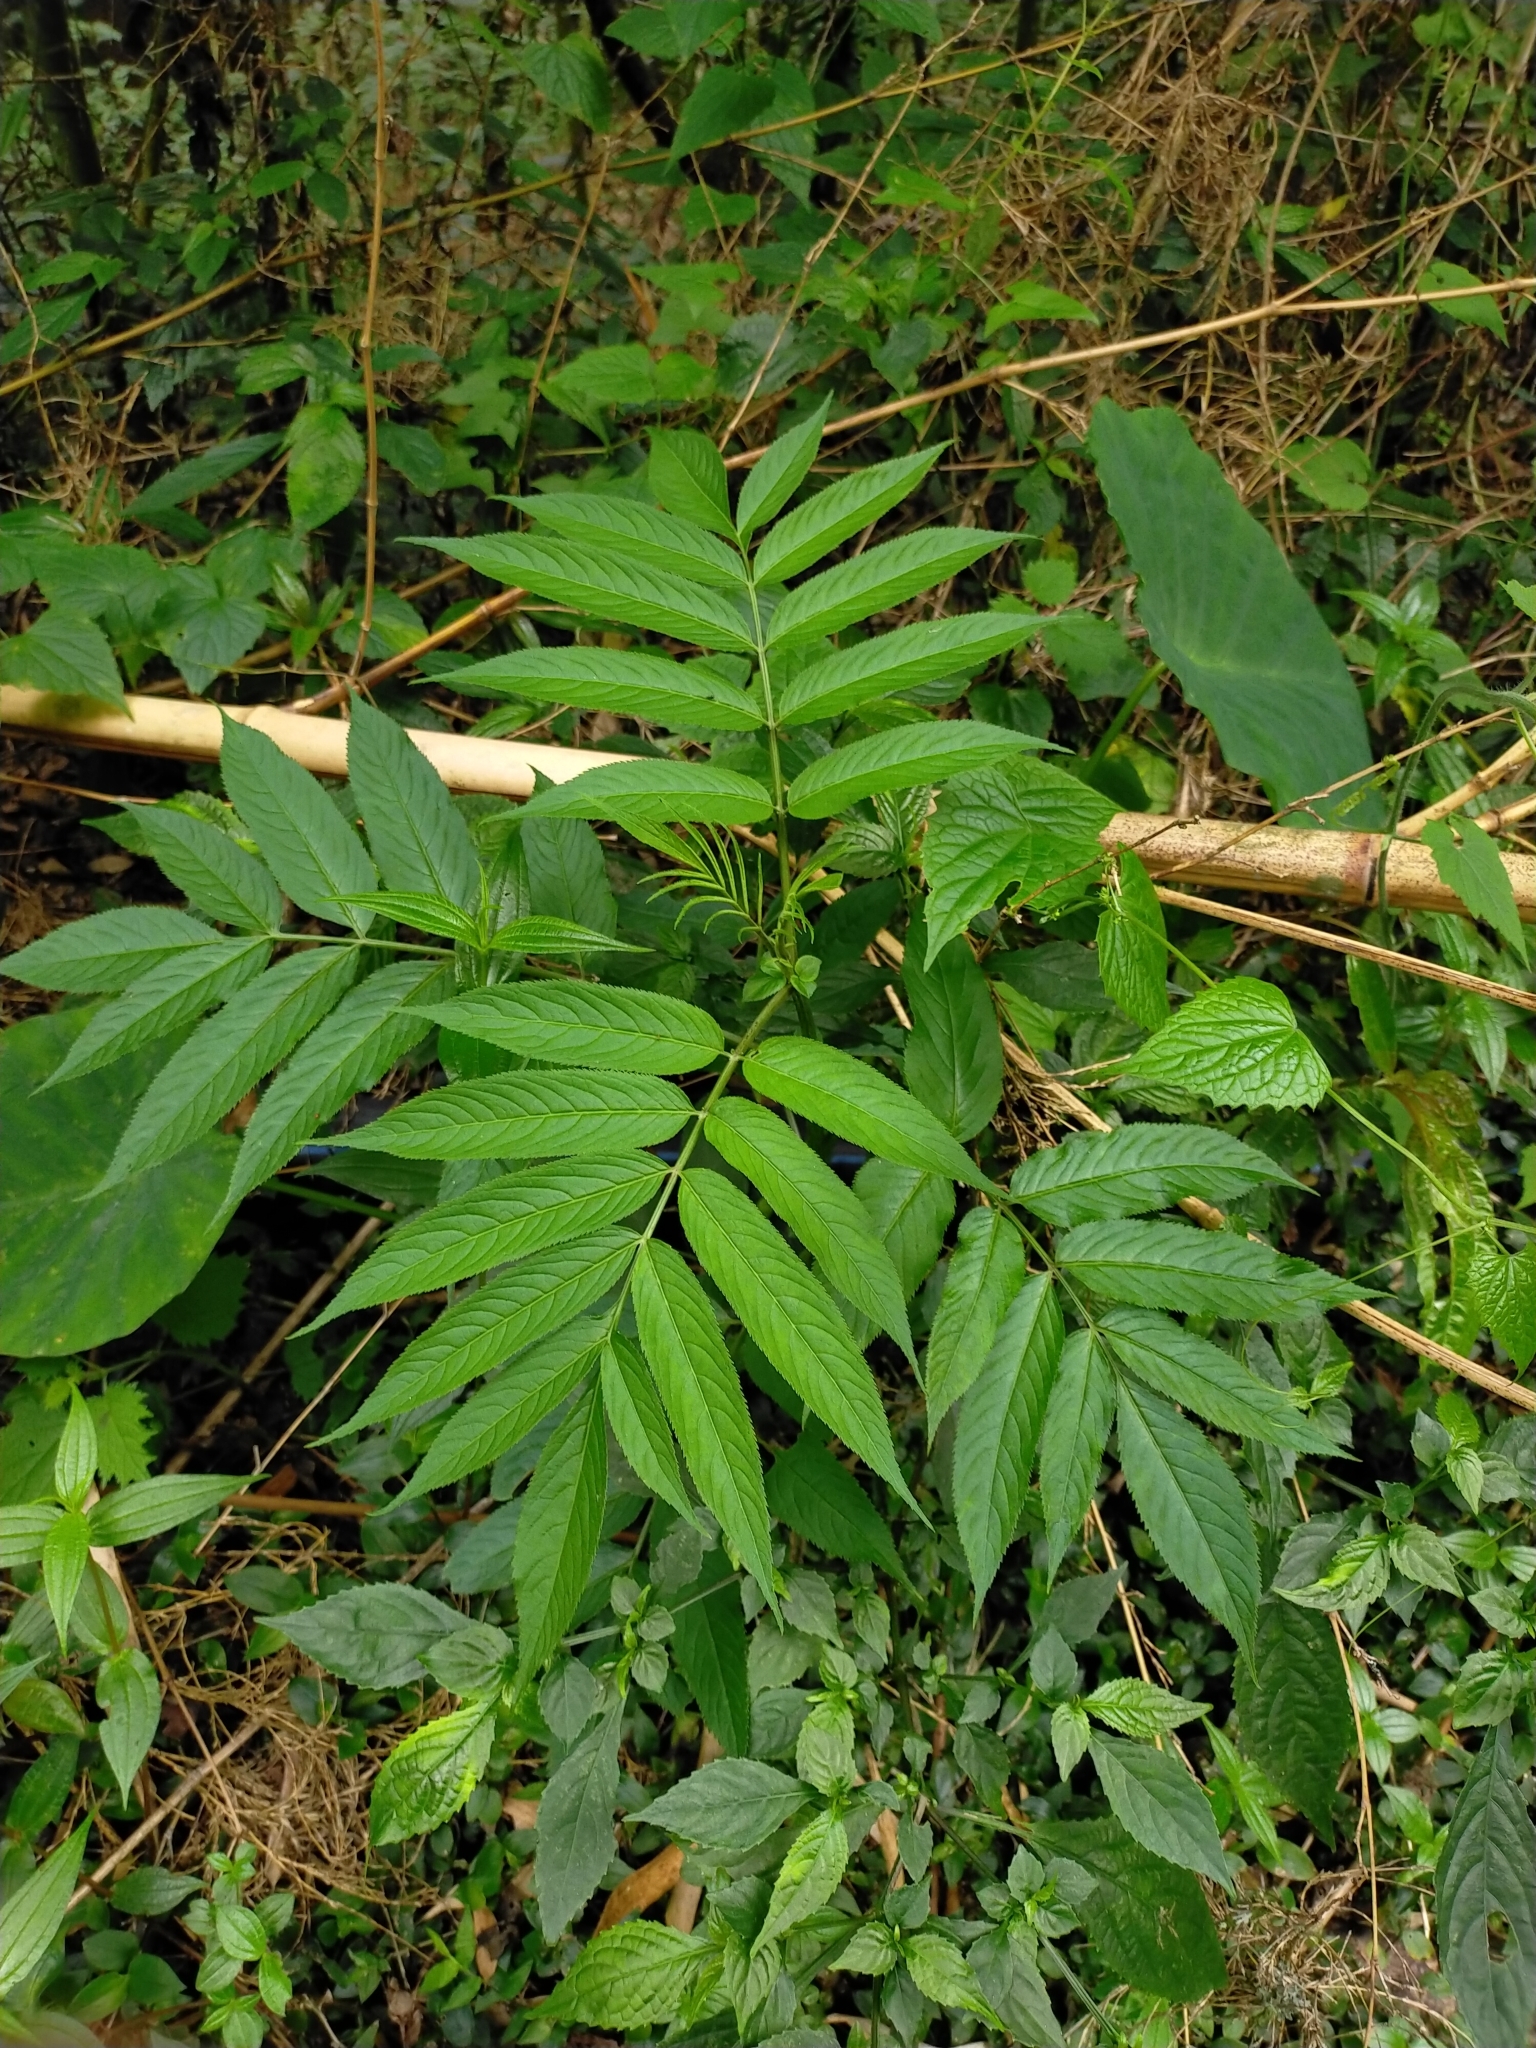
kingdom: Plantae
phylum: Tracheophyta
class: Magnoliopsida
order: Dipsacales
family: Viburnaceae
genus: Sambucus
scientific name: Sambucus javanica
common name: Chinese elder
